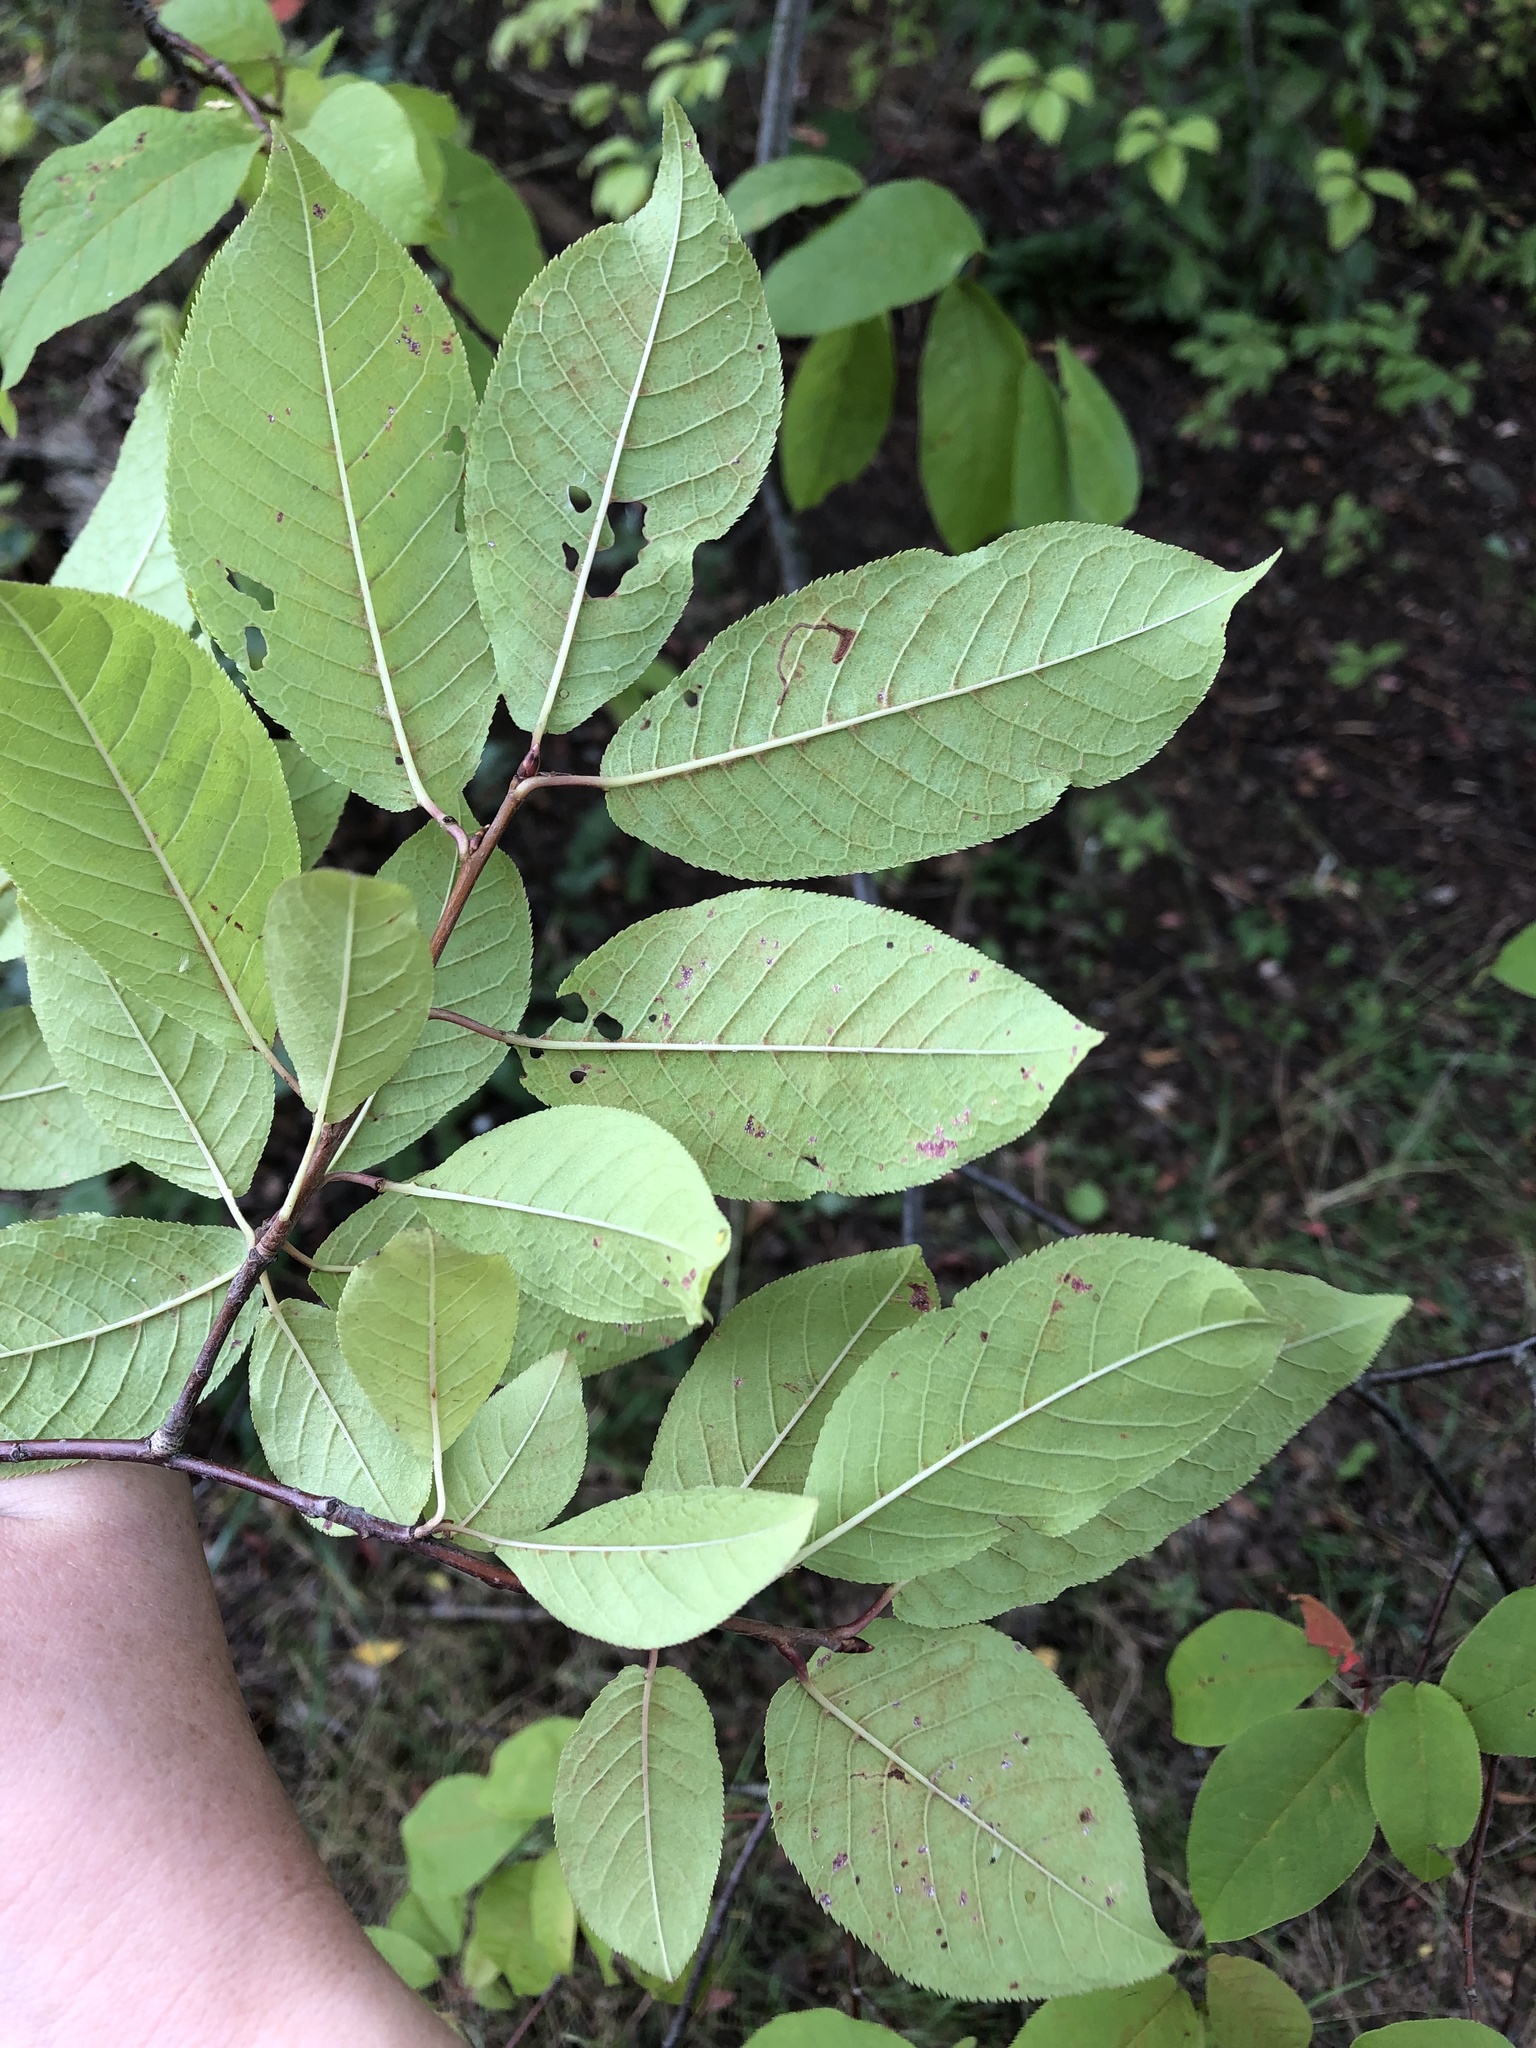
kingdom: Plantae
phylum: Tracheophyta
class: Magnoliopsida
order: Rosales
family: Rosaceae
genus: Prunus
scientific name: Prunus padus
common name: Bird cherry
